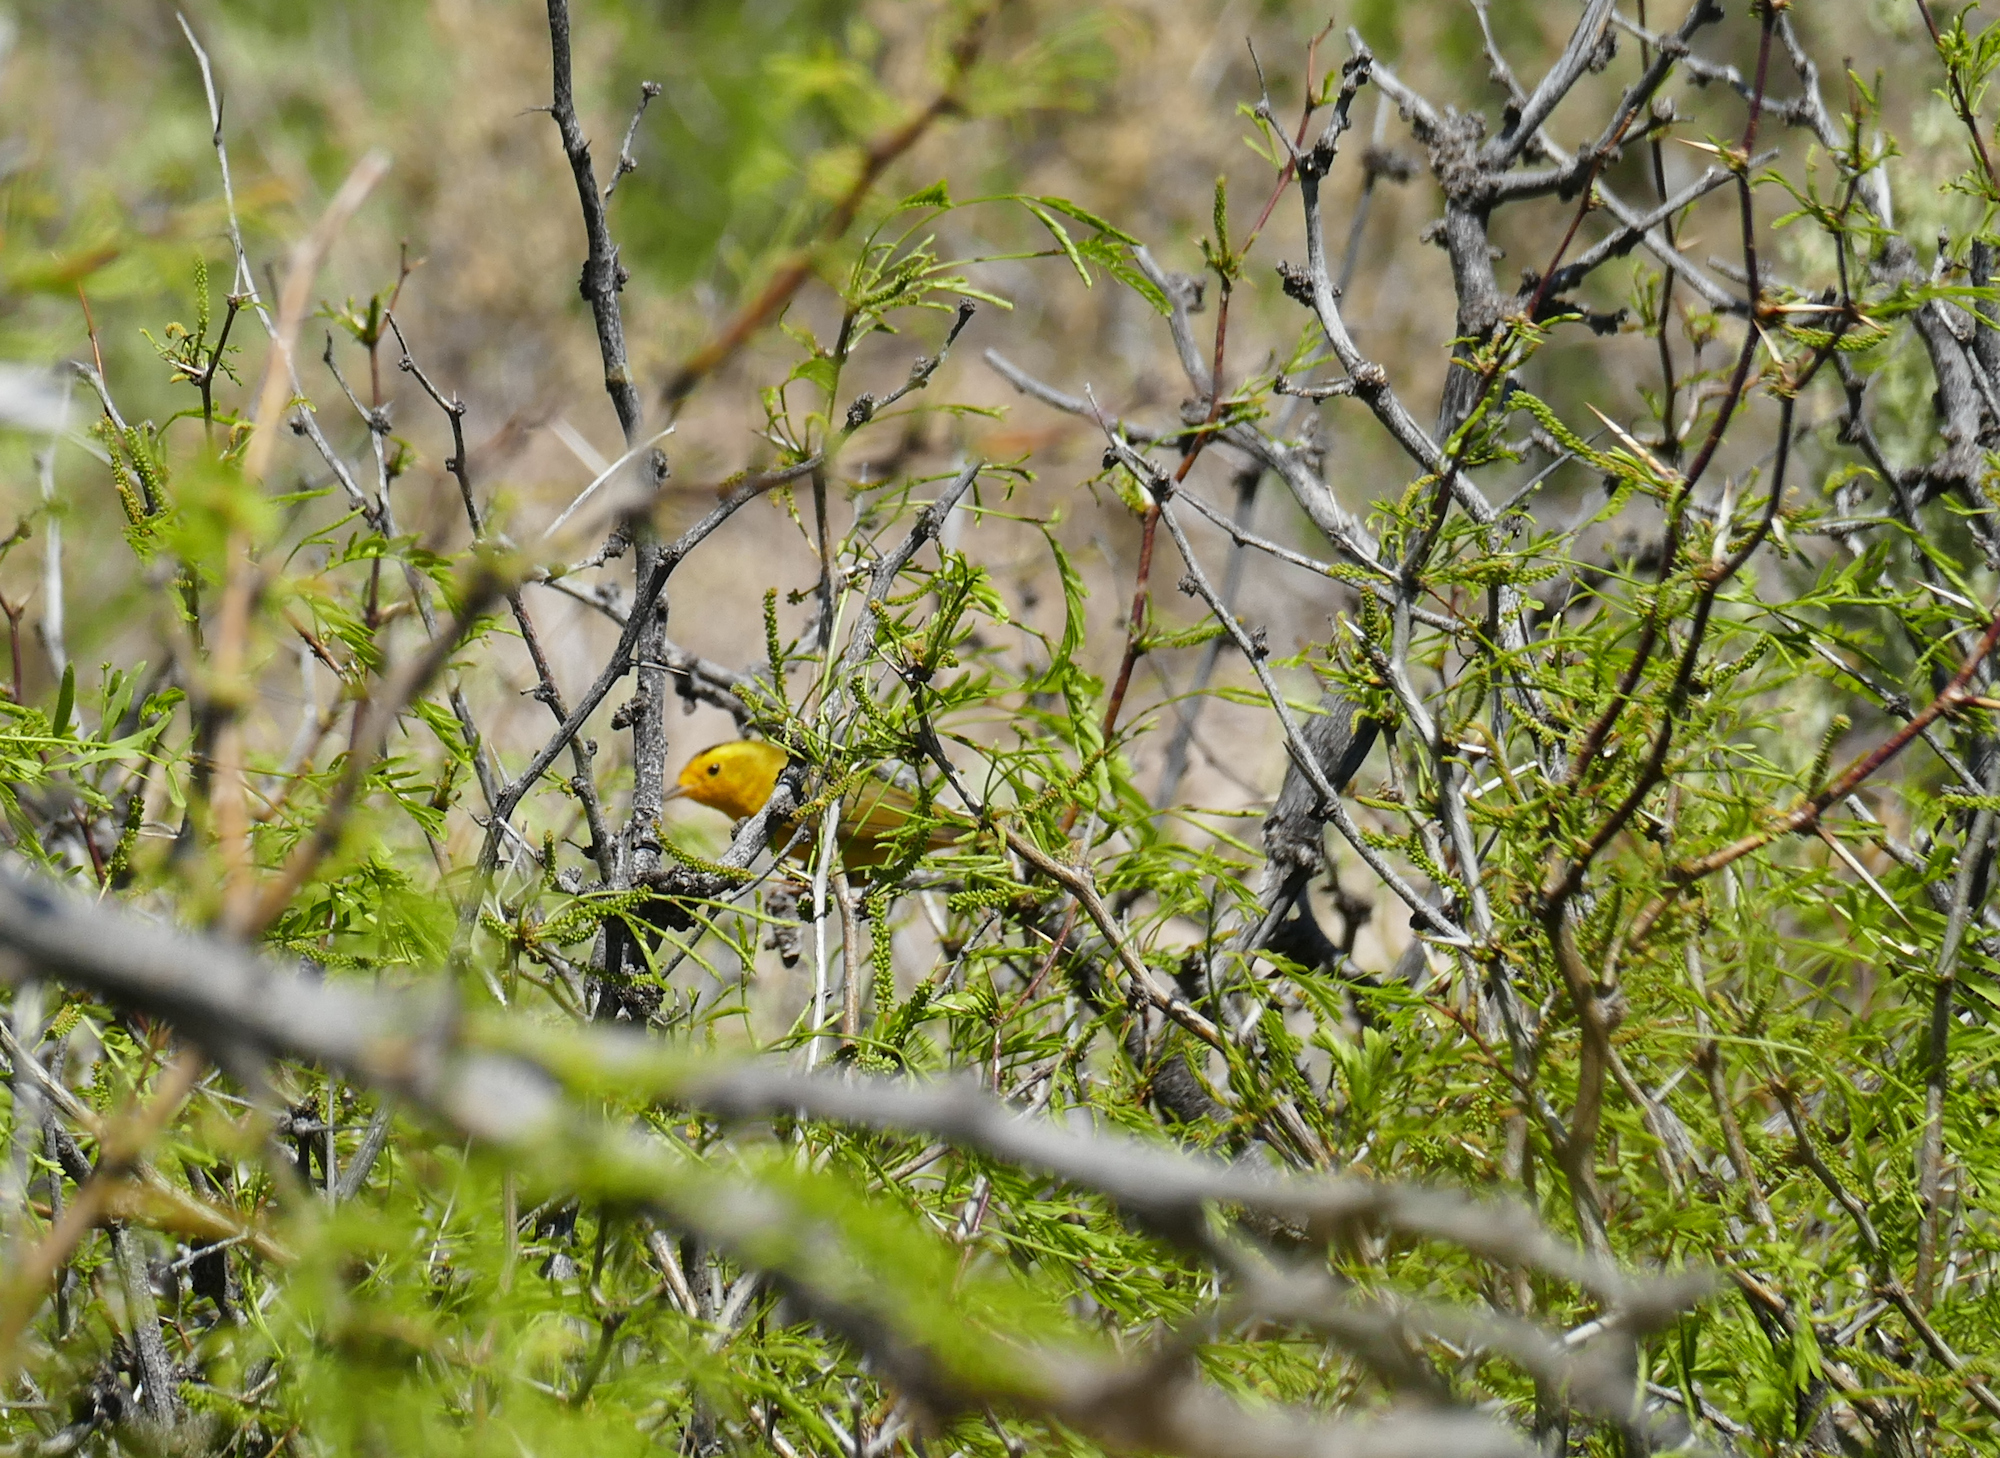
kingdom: Animalia
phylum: Chordata
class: Aves
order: Passeriformes
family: Parulidae
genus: Cardellina
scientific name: Cardellina pusilla
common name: Wilson's warbler
